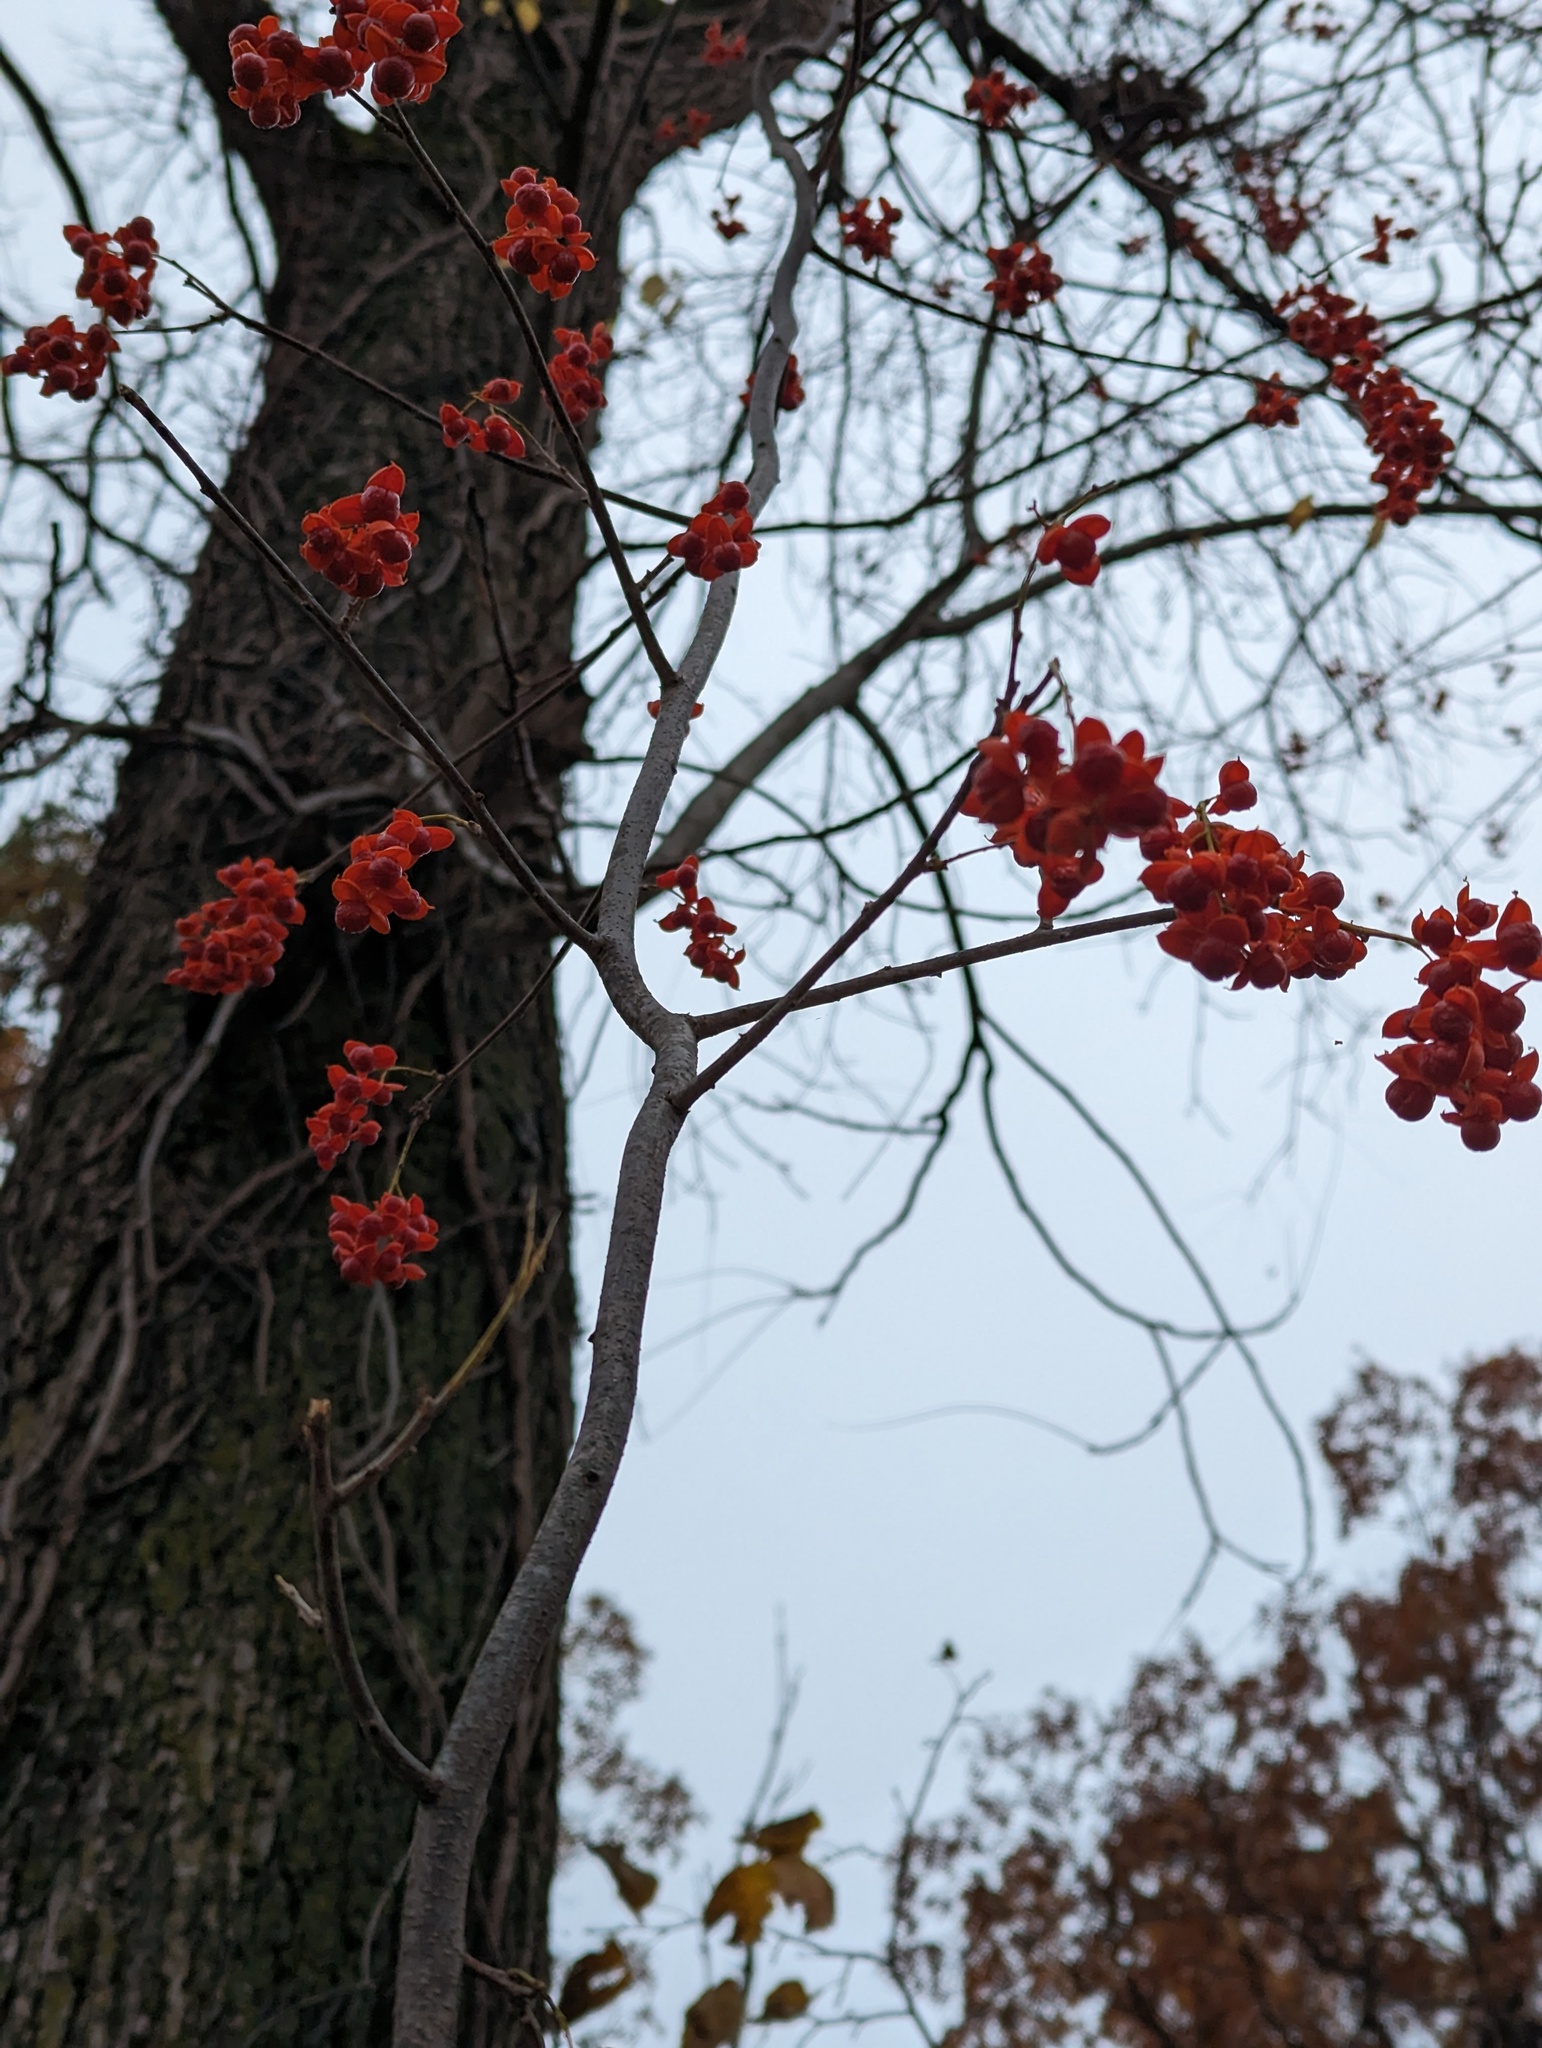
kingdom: Plantae
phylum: Tracheophyta
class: Magnoliopsida
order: Celastrales
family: Celastraceae
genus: Celastrus
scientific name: Celastrus scandens
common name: American bittersweet
